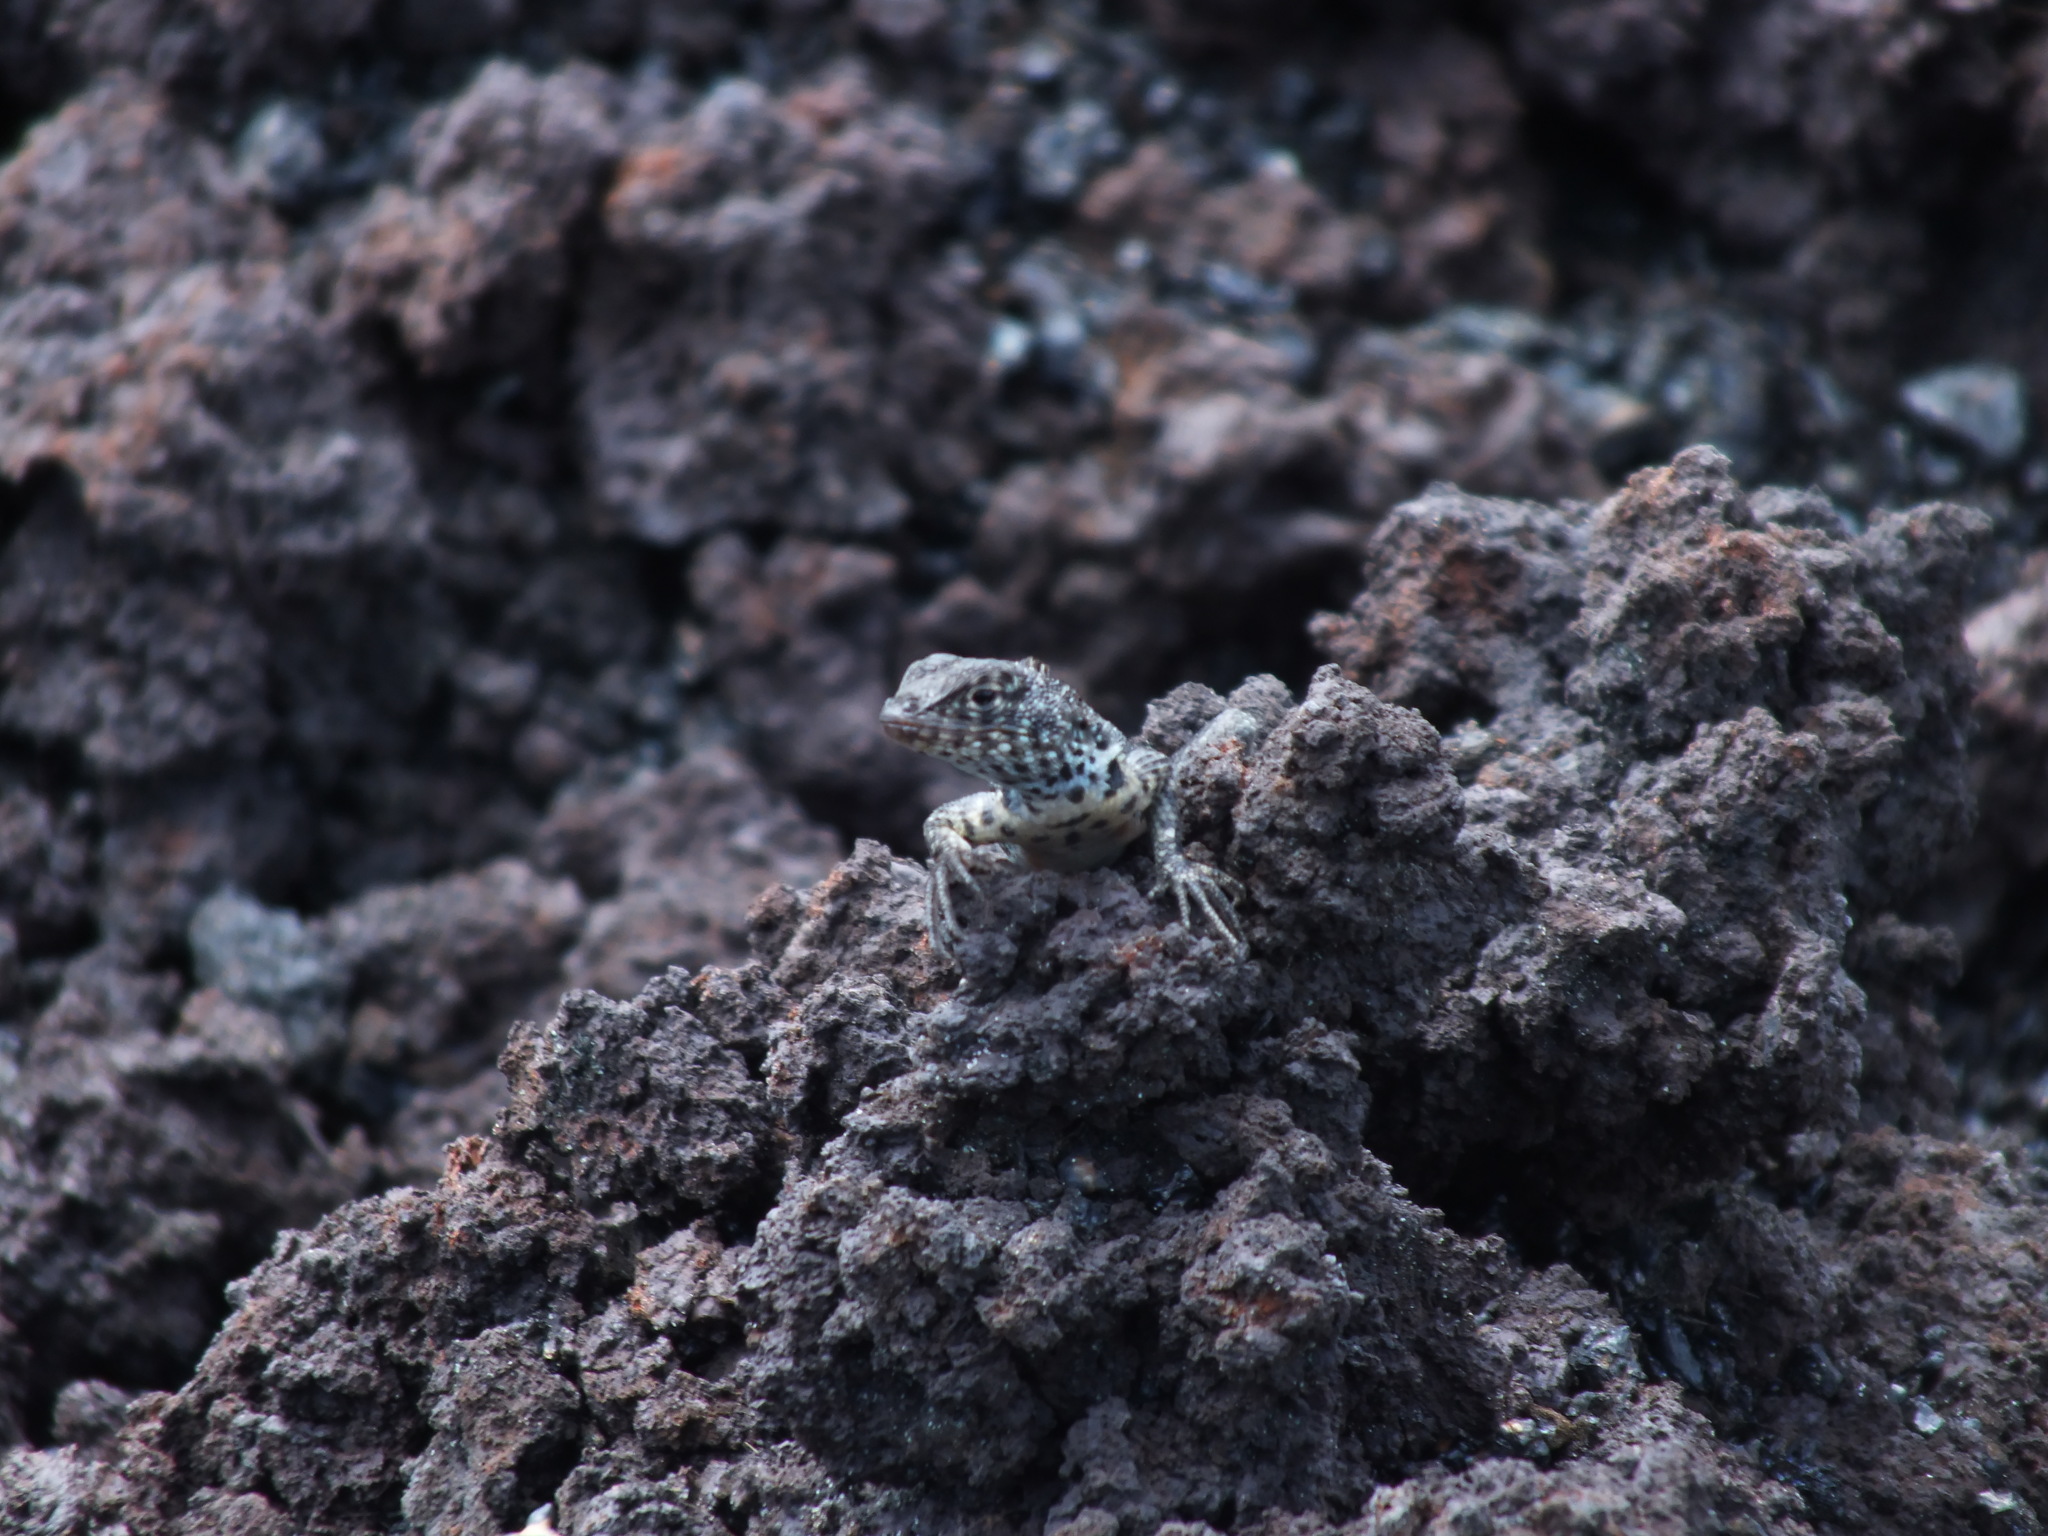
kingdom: Animalia
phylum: Chordata
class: Squamata
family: Tropiduridae
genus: Microlophus
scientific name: Microlophus albemarlensis
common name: Galapagos lava lizard
